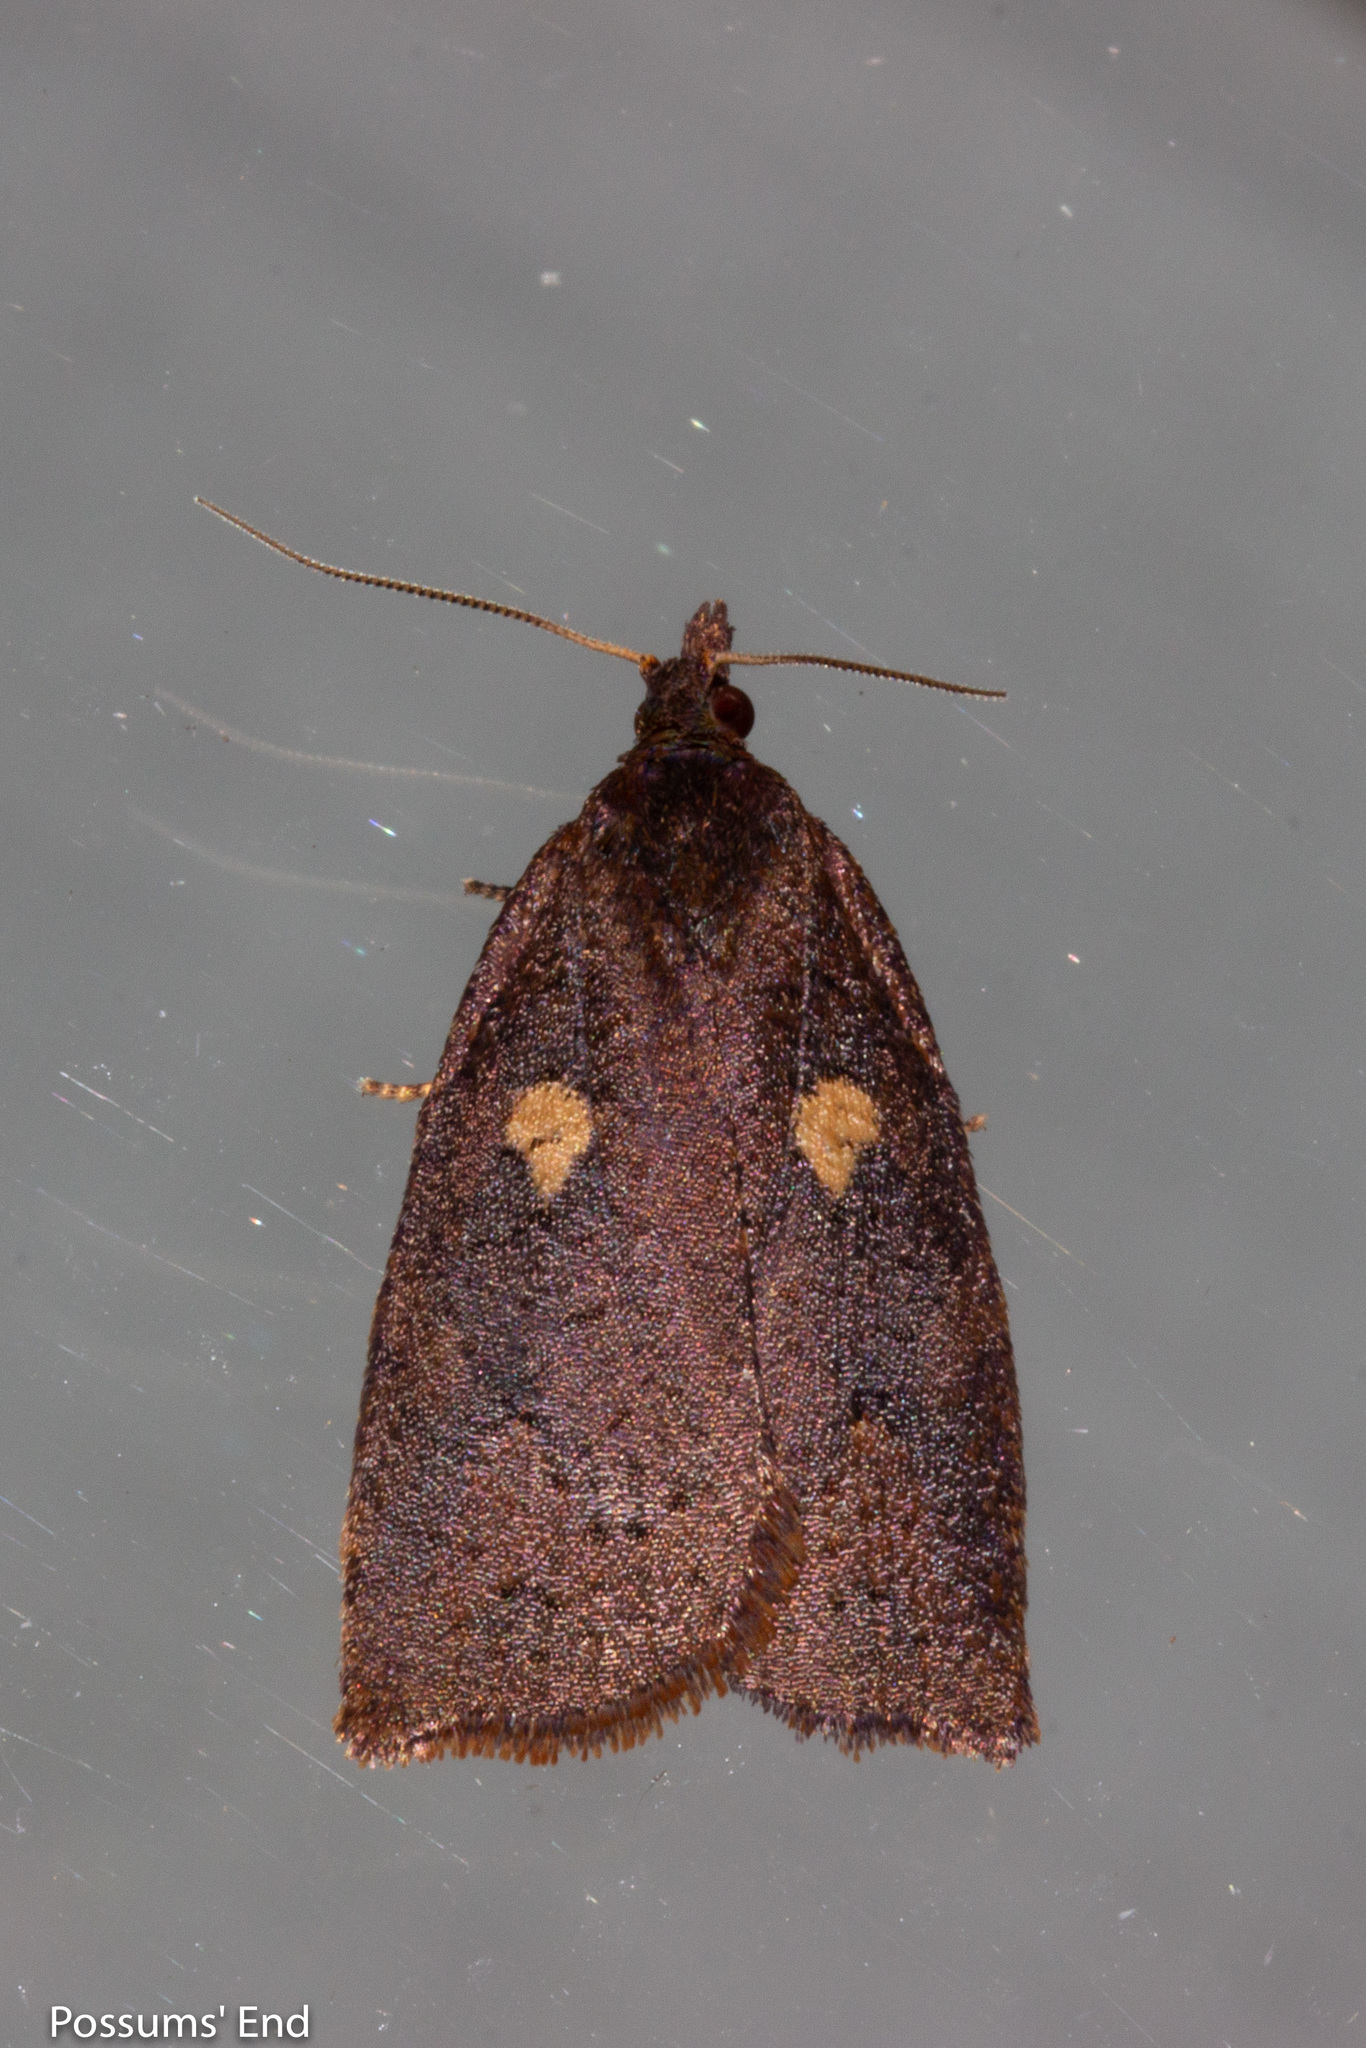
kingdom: Animalia
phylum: Arthropoda
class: Insecta
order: Lepidoptera
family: Tortricidae
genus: Planotortrix
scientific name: Planotortrix excessana
